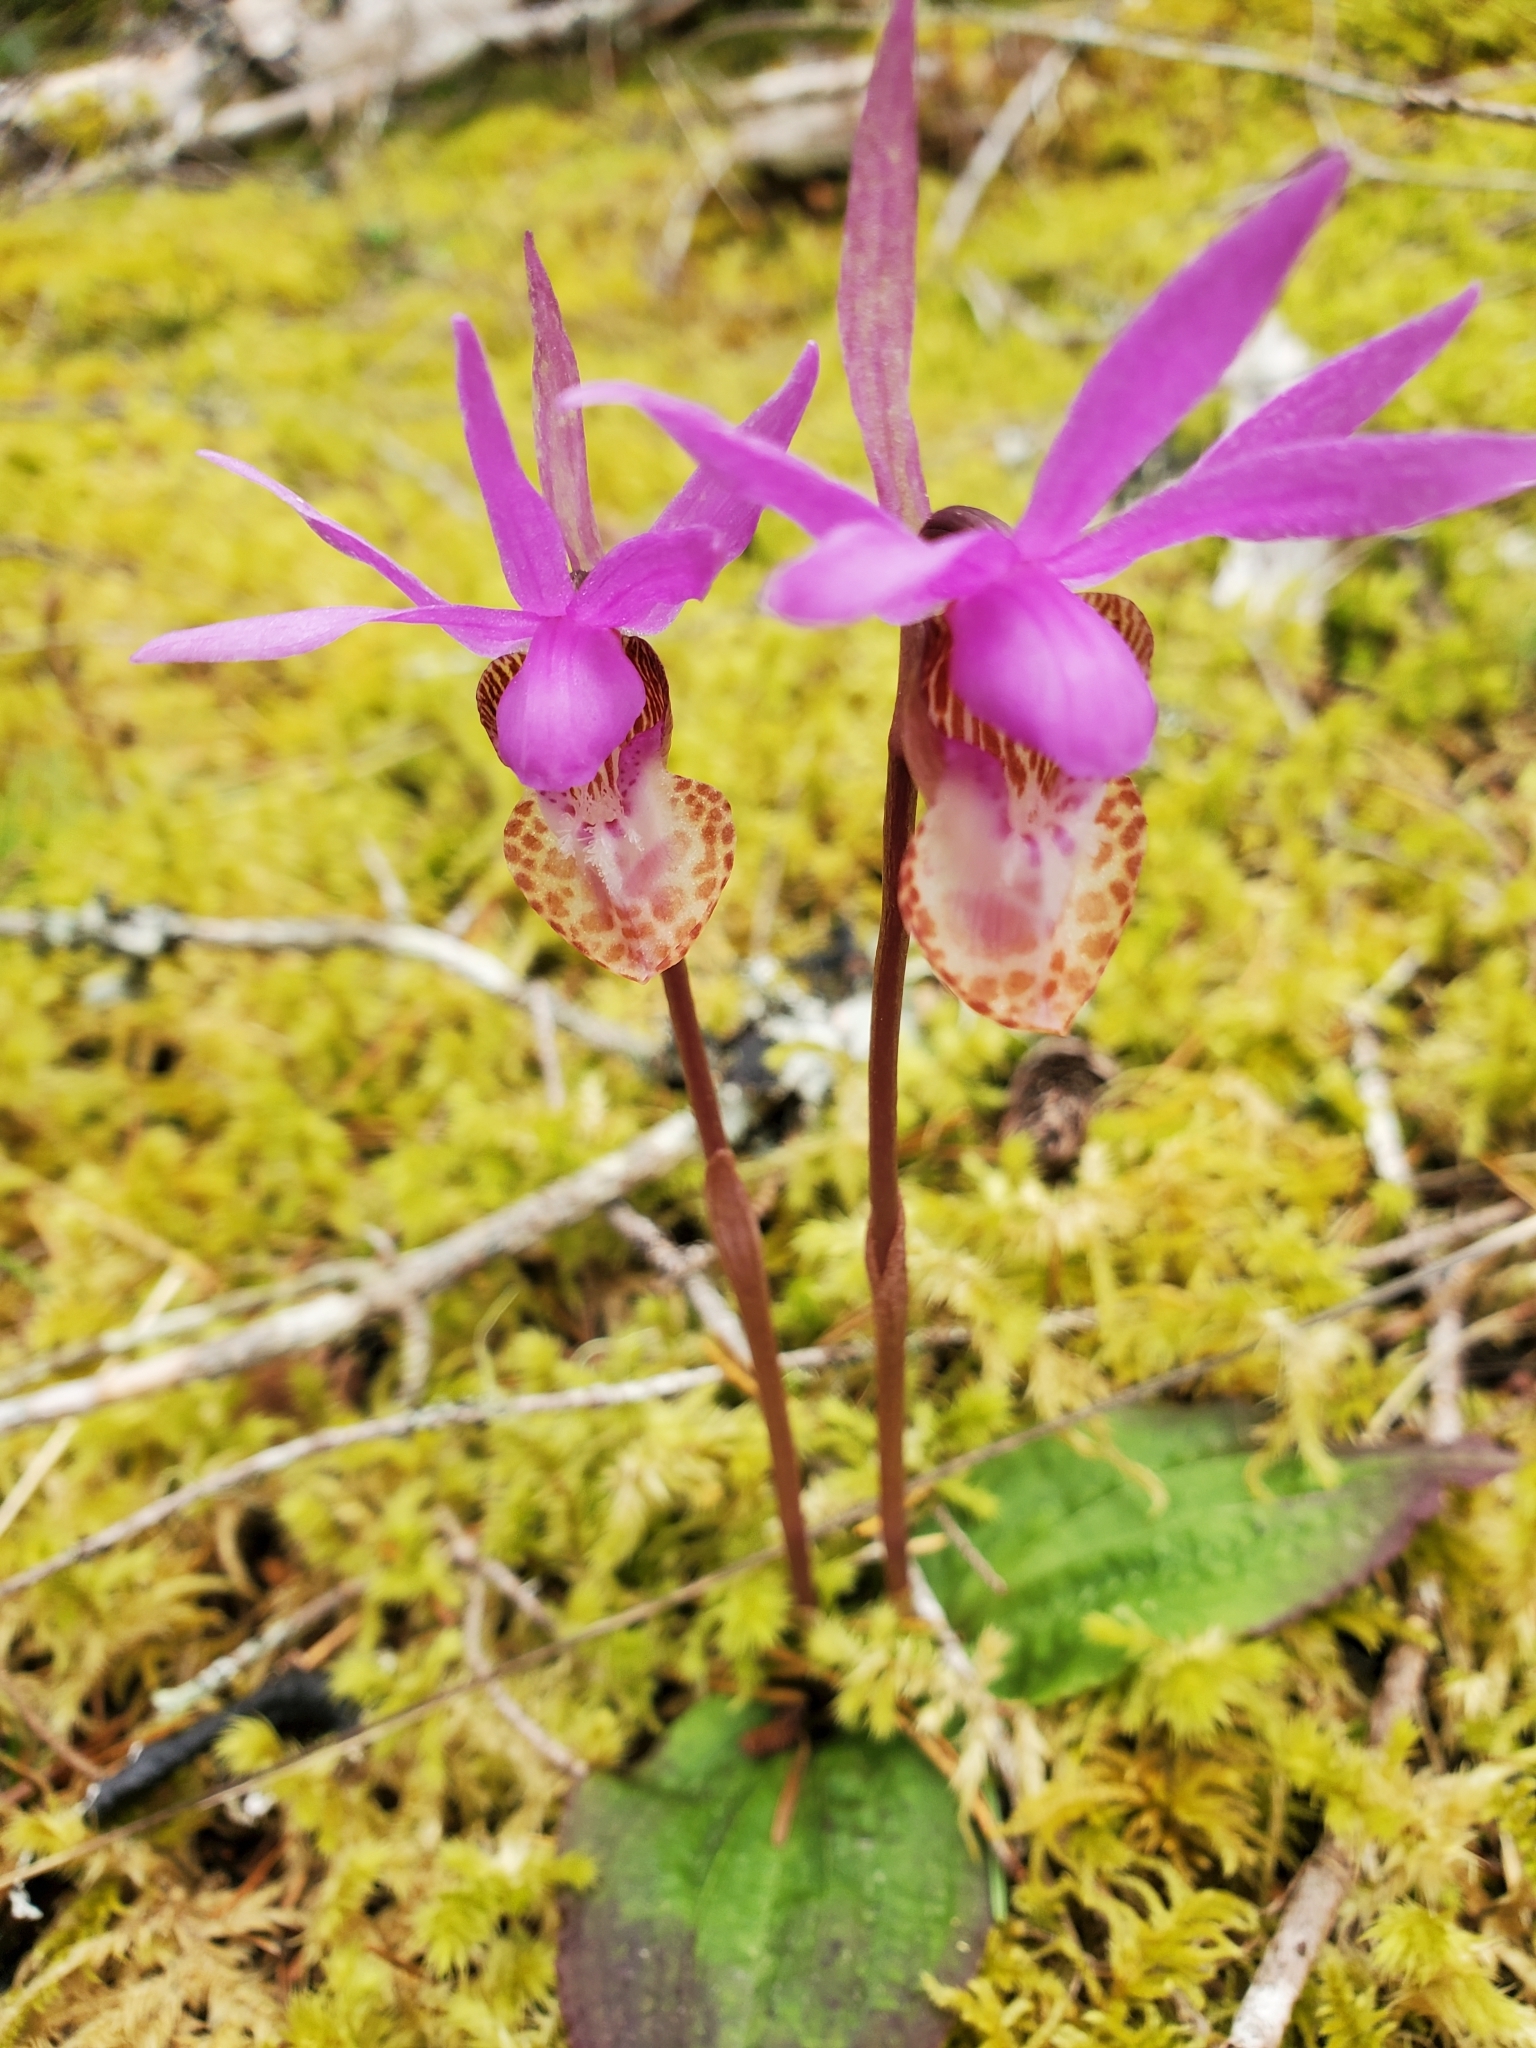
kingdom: Plantae
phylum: Tracheophyta
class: Liliopsida
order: Asparagales
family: Orchidaceae
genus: Calypso
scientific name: Calypso bulbosa
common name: Calypso
